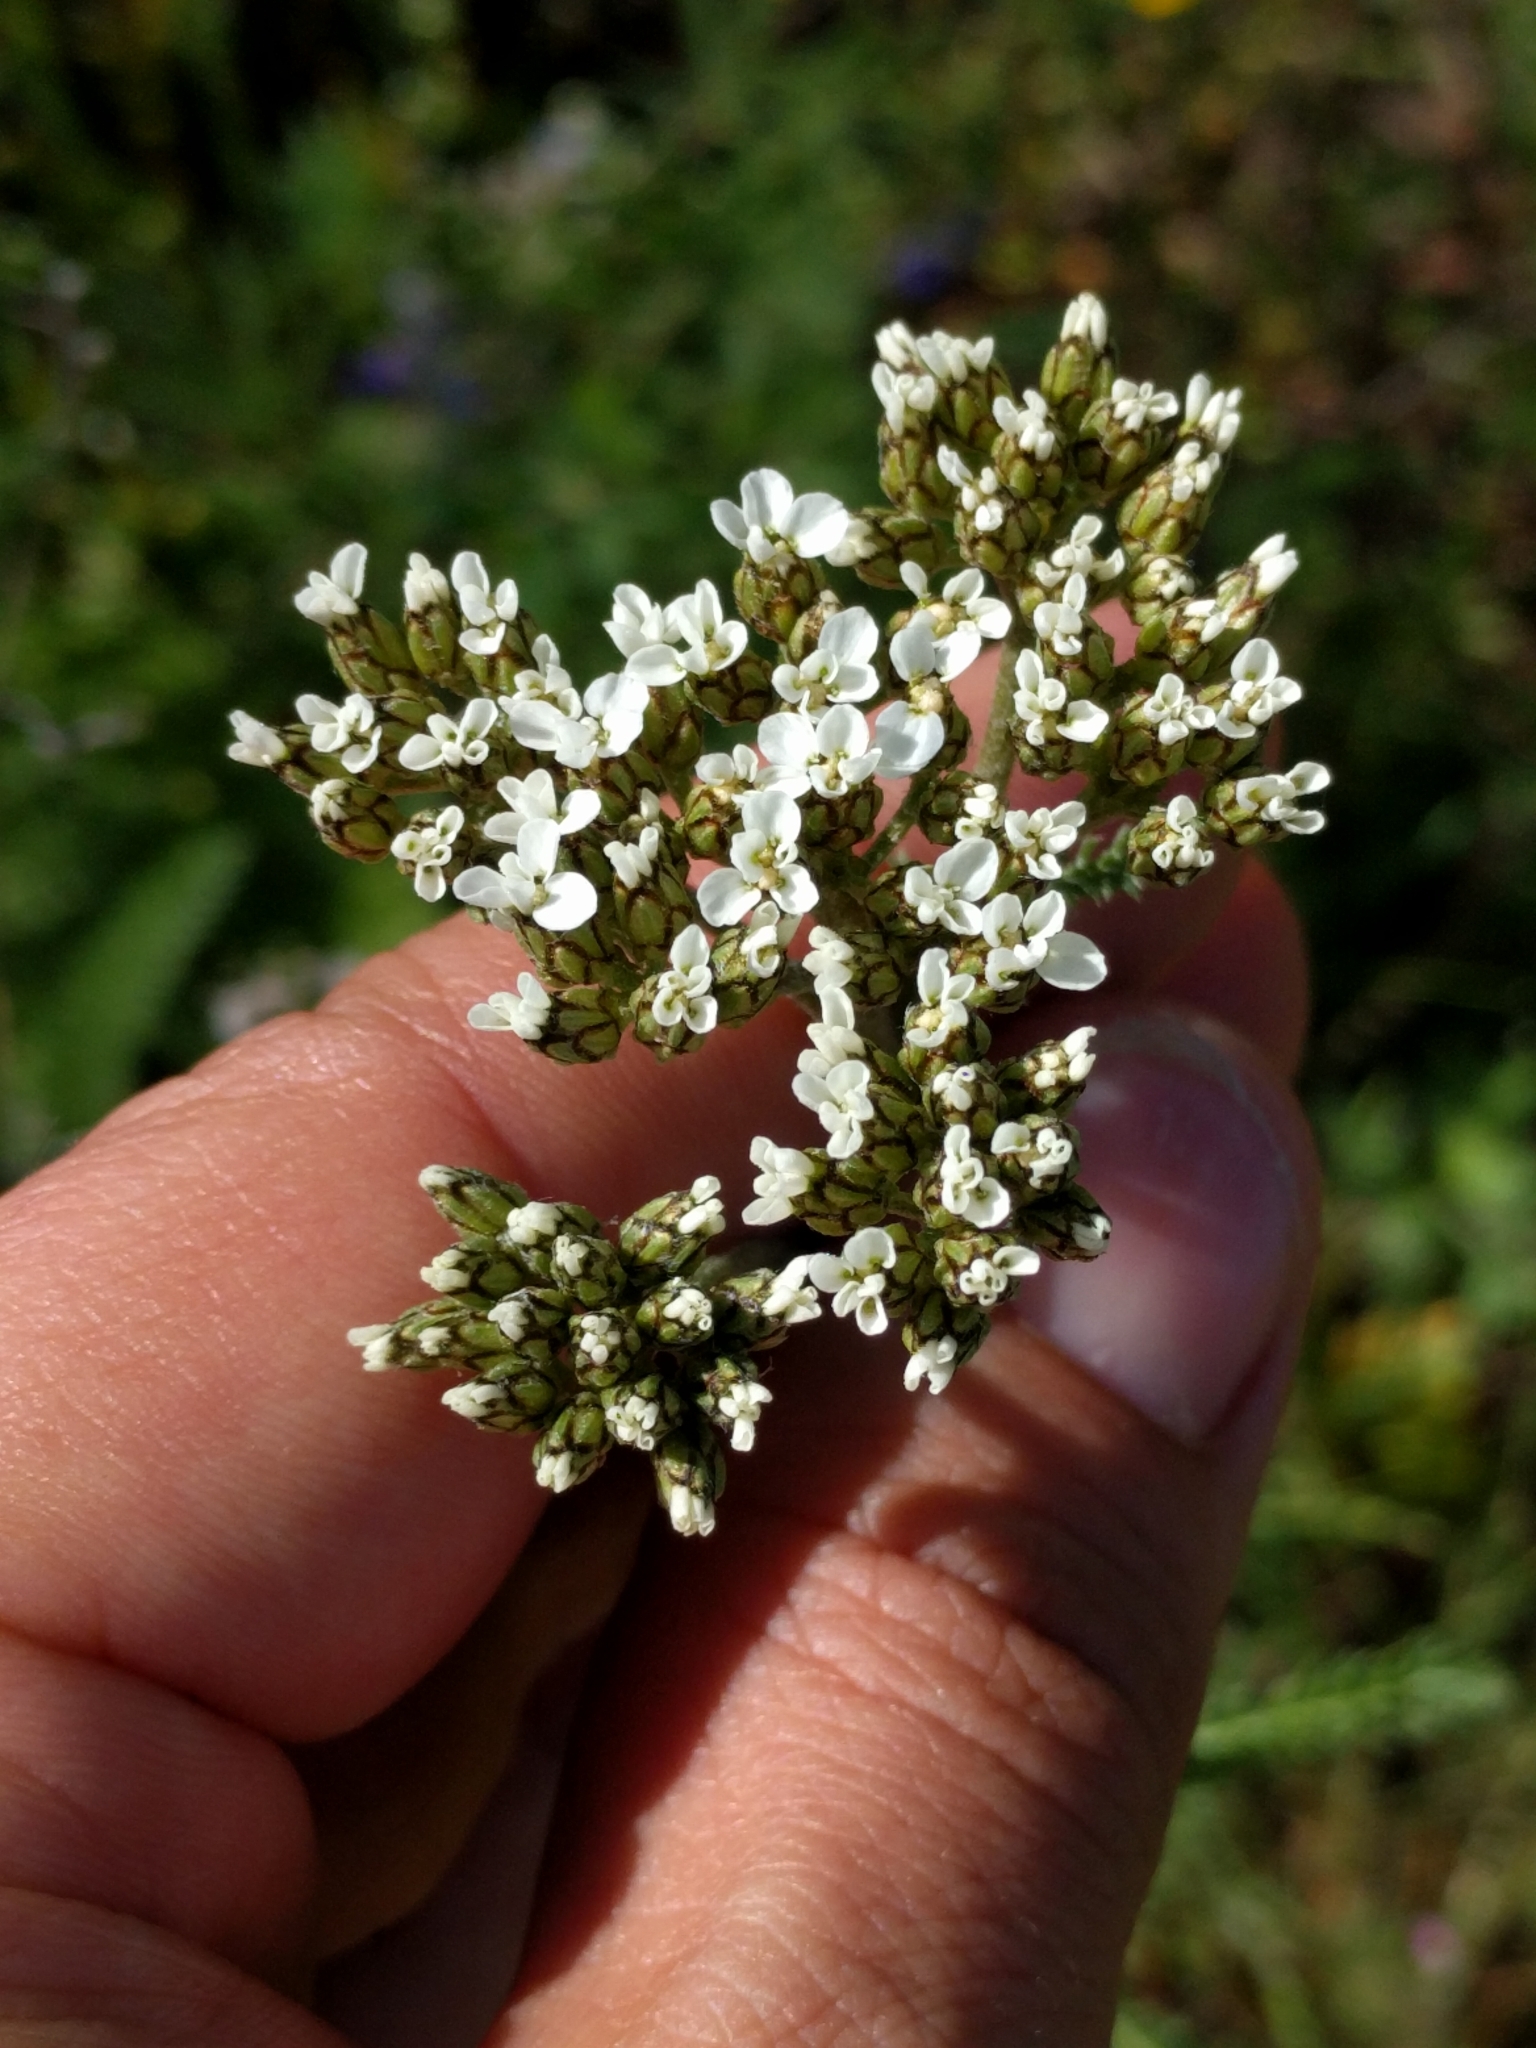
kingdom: Plantae
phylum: Tracheophyta
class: Magnoliopsida
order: Asterales
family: Asteraceae
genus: Achillea
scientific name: Achillea millefolium
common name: Yarrow
